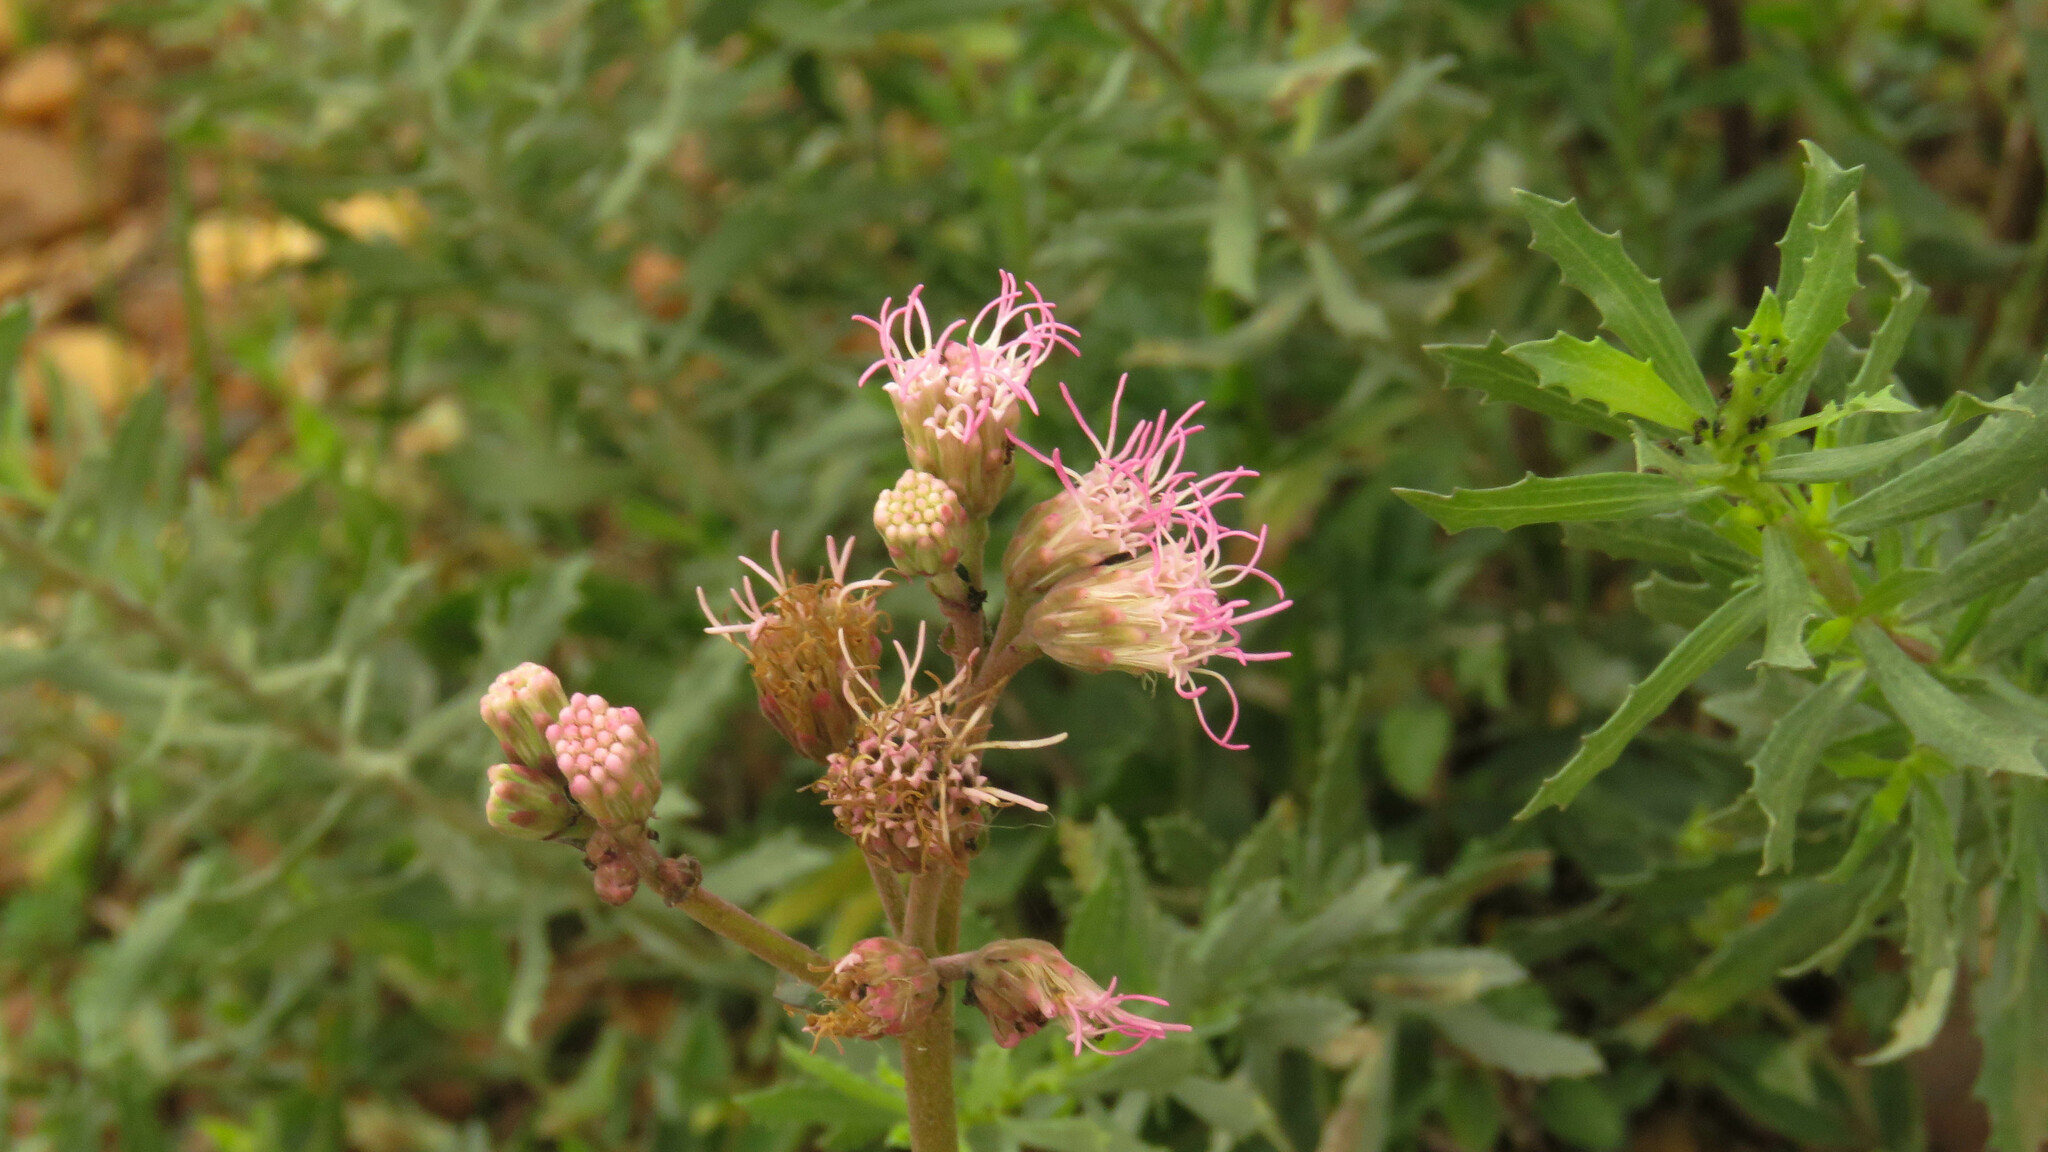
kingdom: Plantae
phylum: Tracheophyta
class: Magnoliopsida
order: Asterales
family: Asteraceae
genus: Gyptis
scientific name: Gyptis artemisifolia
